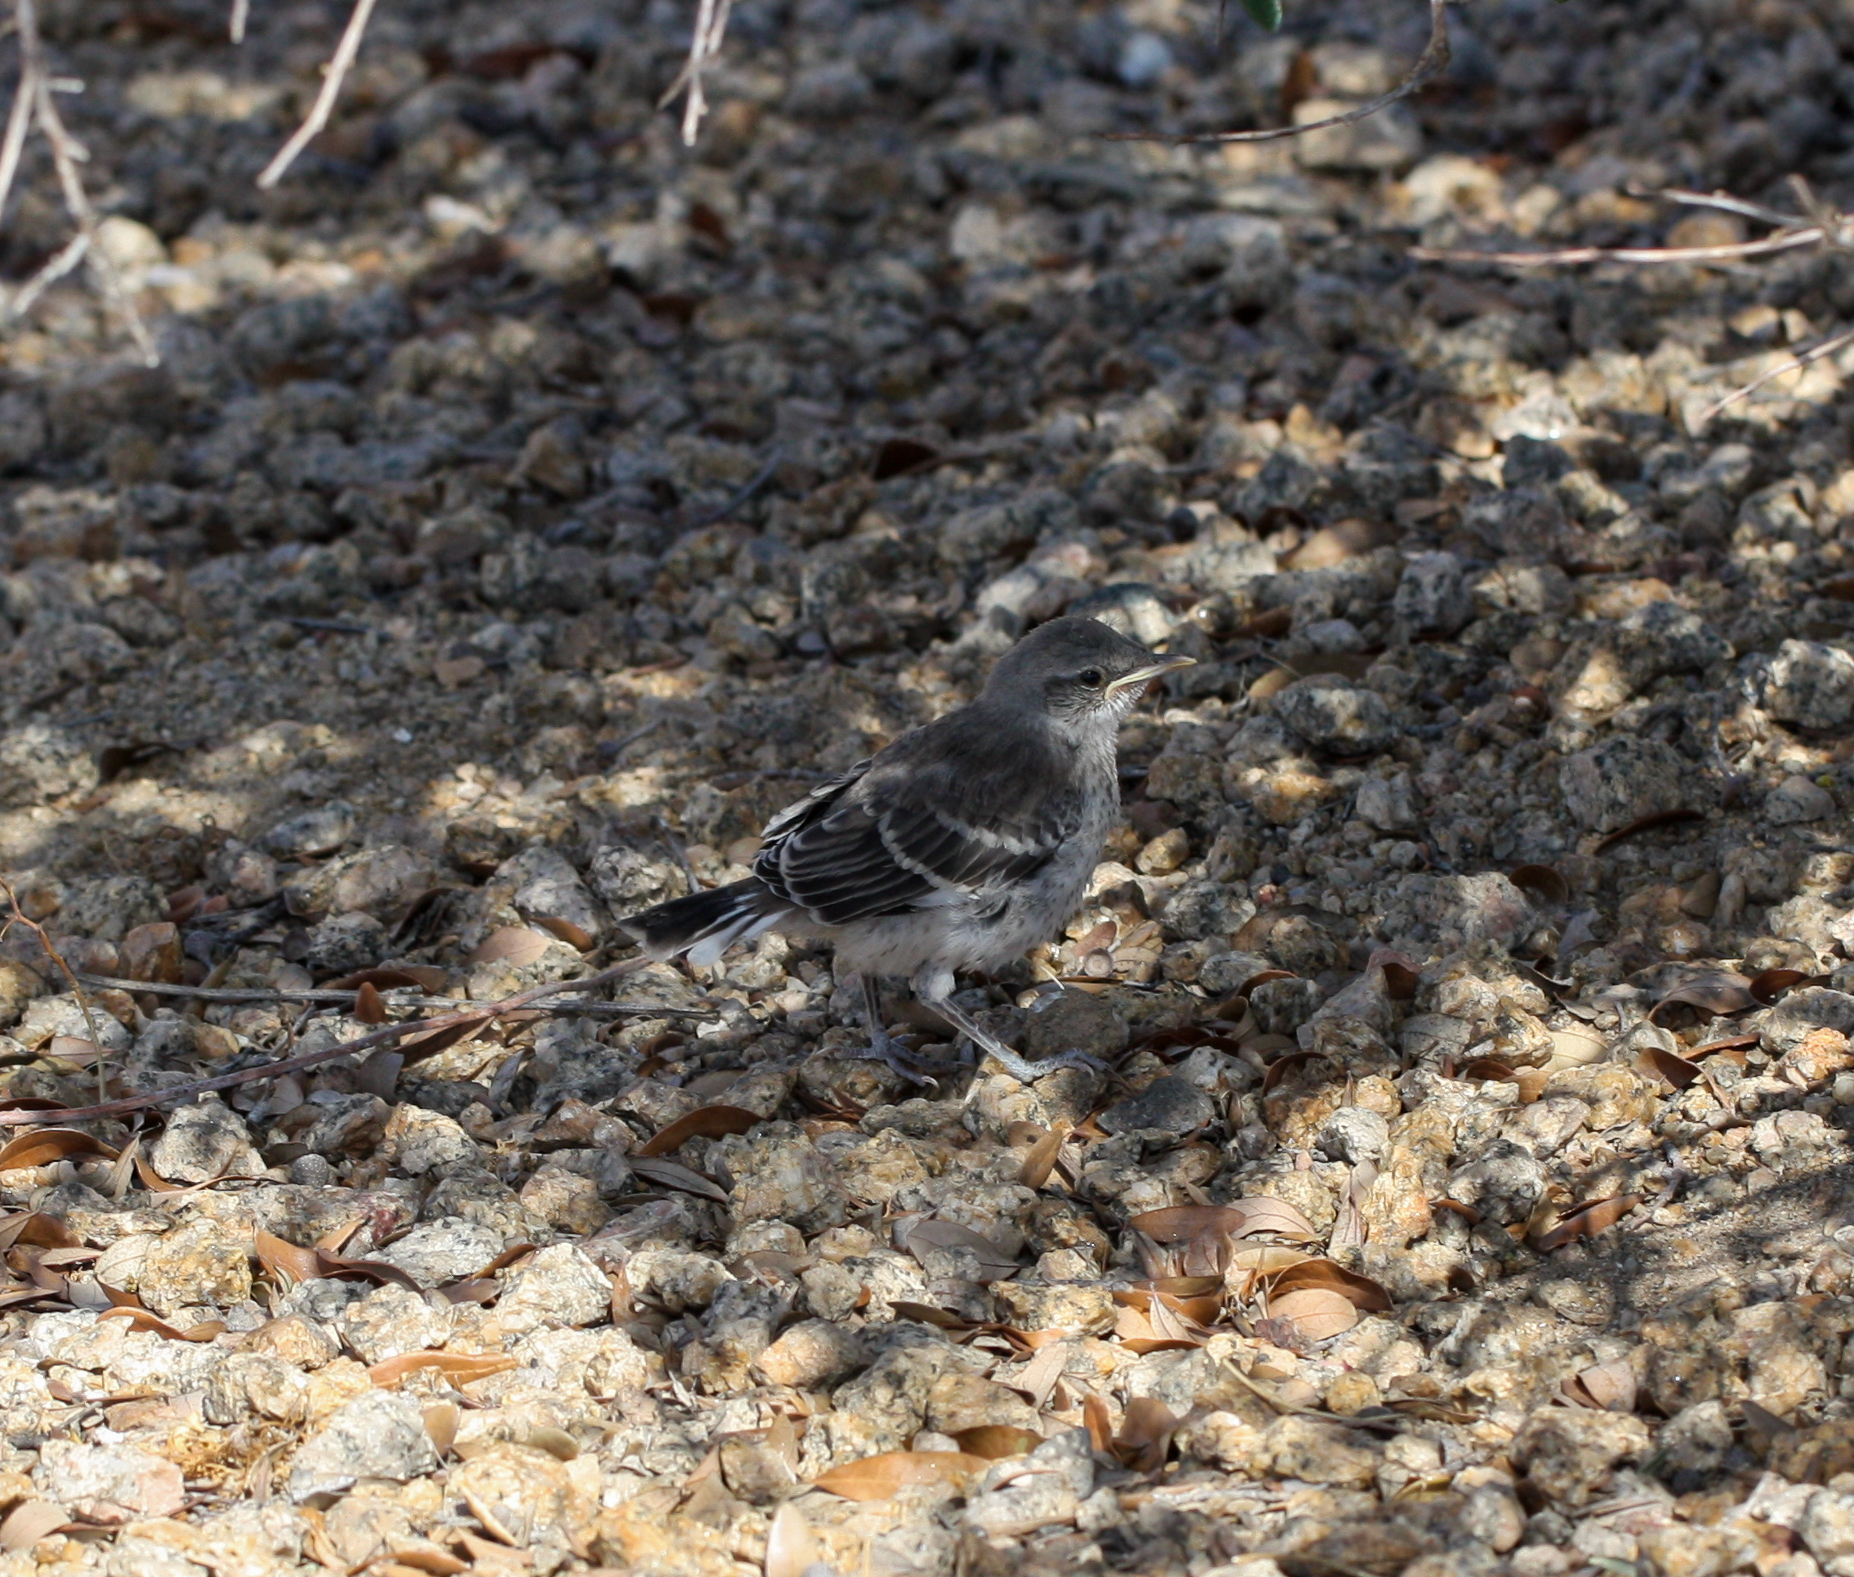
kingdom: Animalia
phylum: Chordata
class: Aves
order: Passeriformes
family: Mimidae
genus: Mimus
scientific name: Mimus polyglottos
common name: Northern mockingbird
